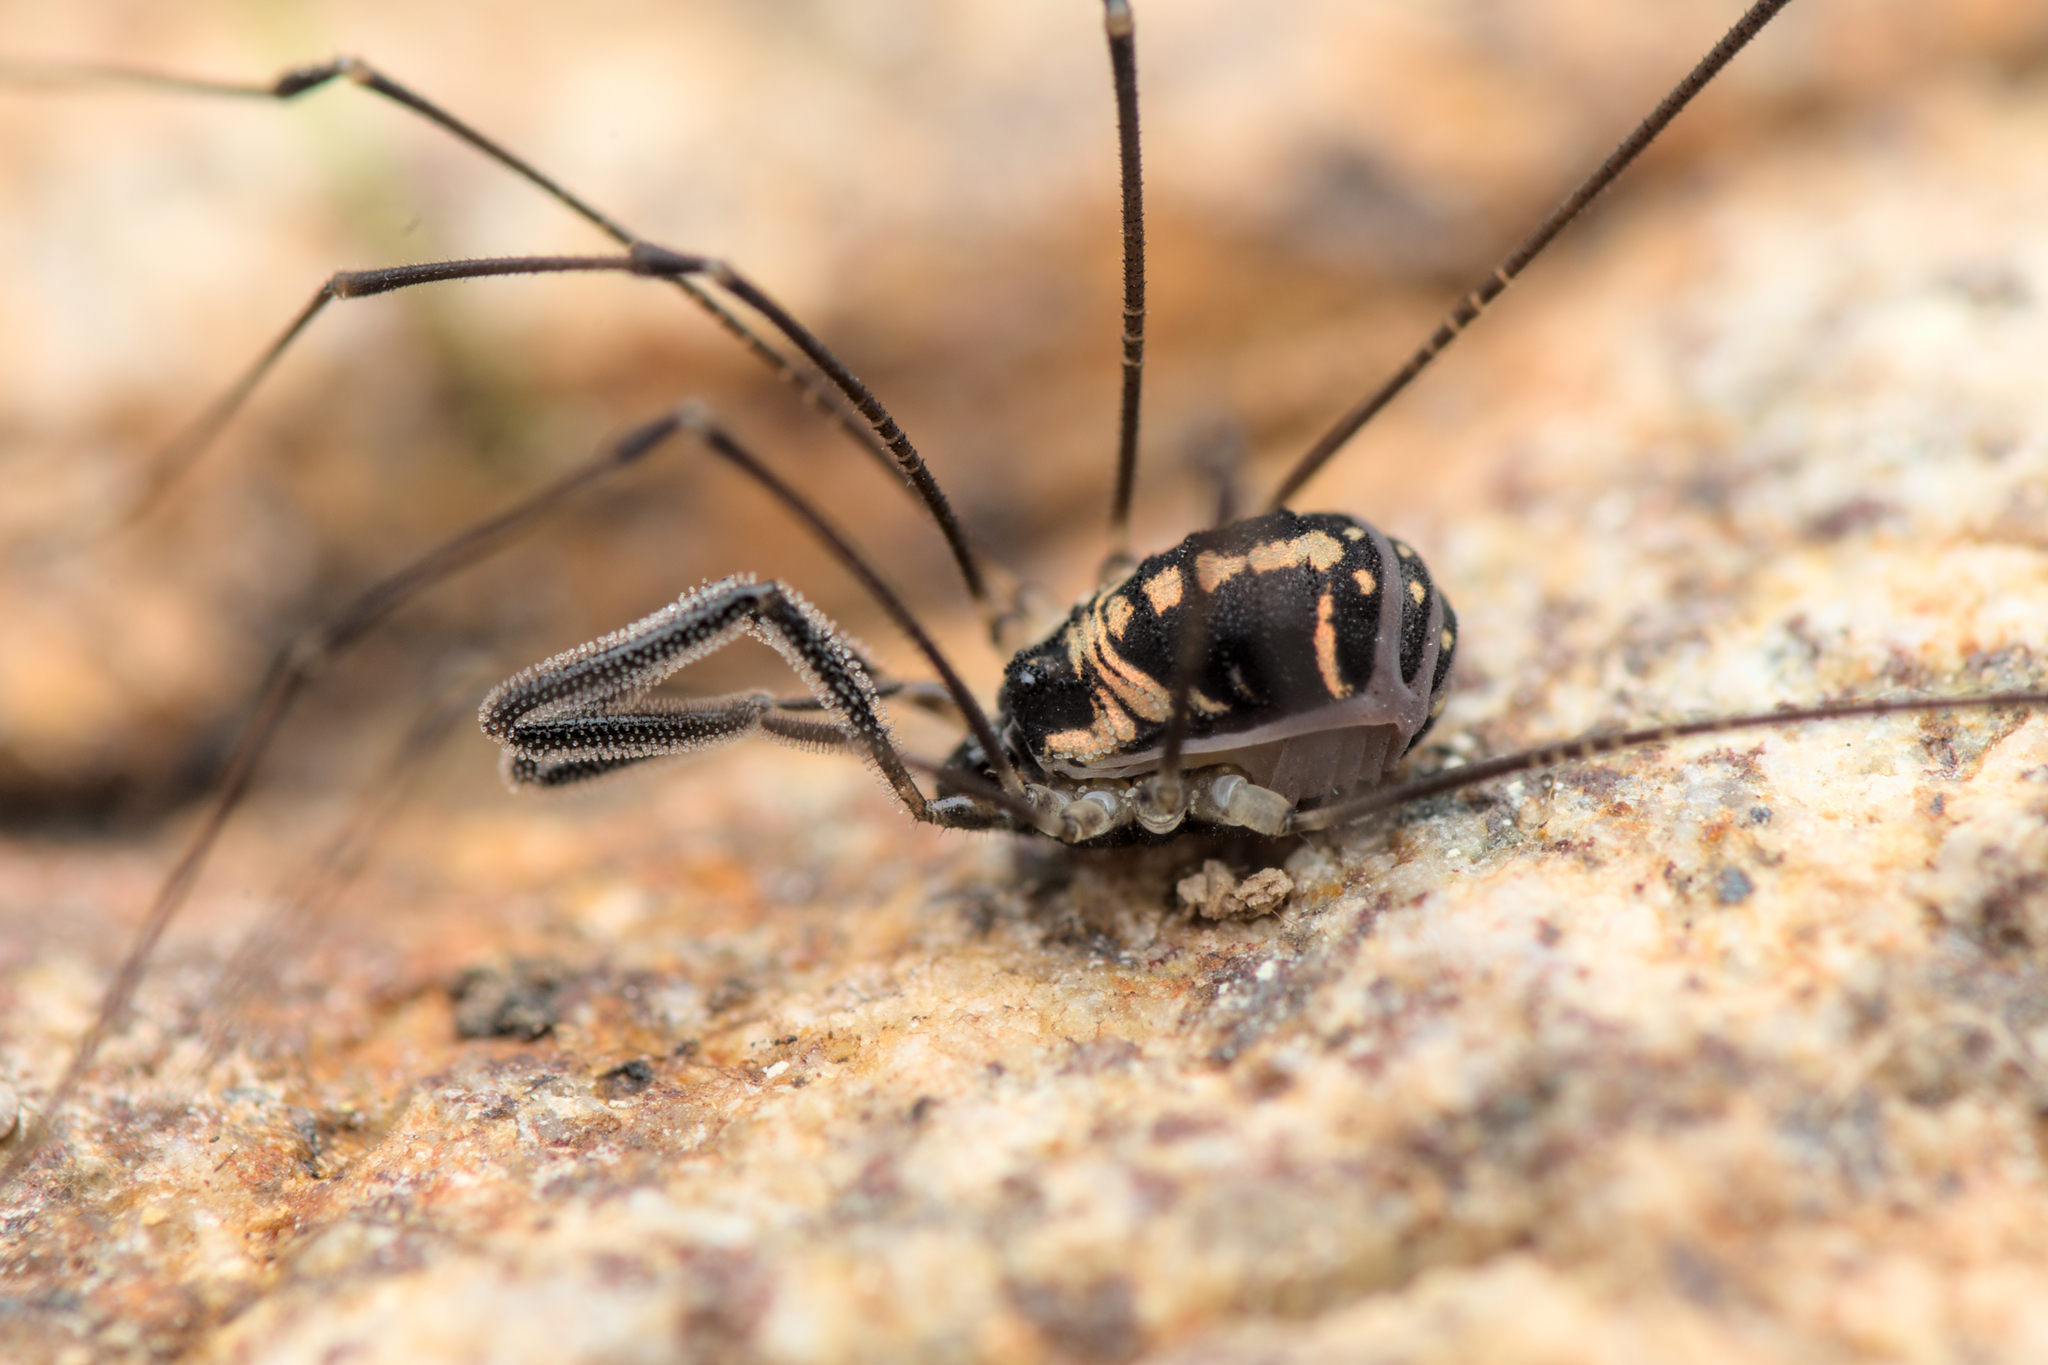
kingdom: Animalia
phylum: Arthropoda
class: Arachnida
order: Opiliones
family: Nemastomatidae
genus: Mitostoma
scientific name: Mitostoma pyrenaeum
